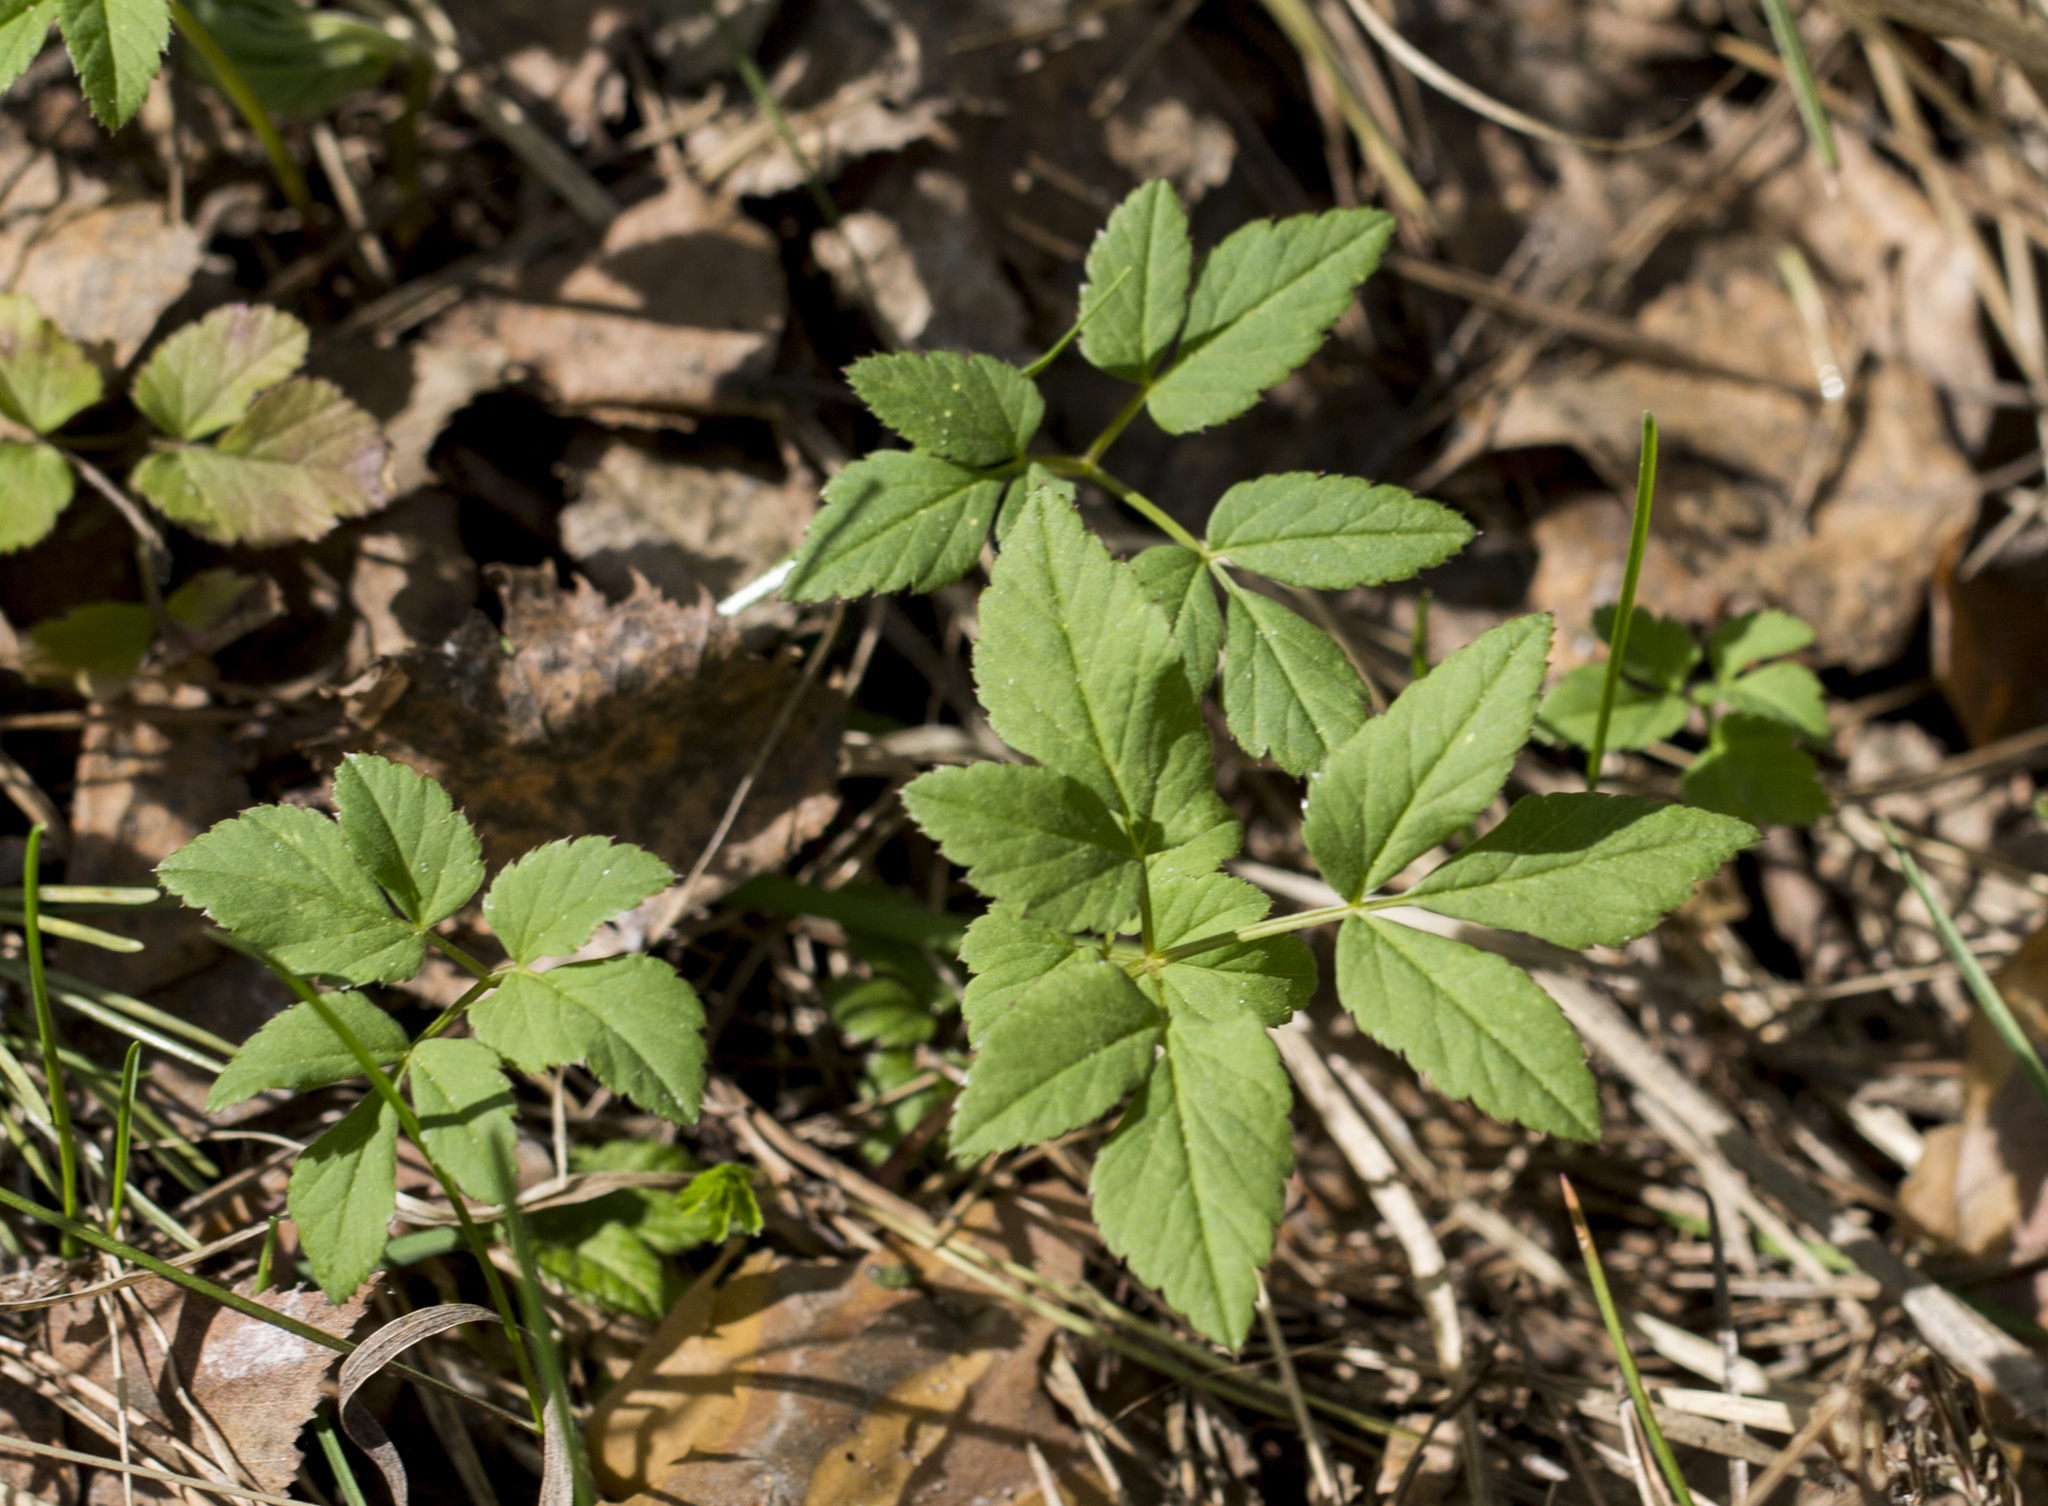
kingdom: Plantae
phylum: Tracheophyta
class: Magnoliopsida
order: Apiales
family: Apiaceae
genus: Aegopodium
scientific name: Aegopodium podagraria
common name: Ground-elder
